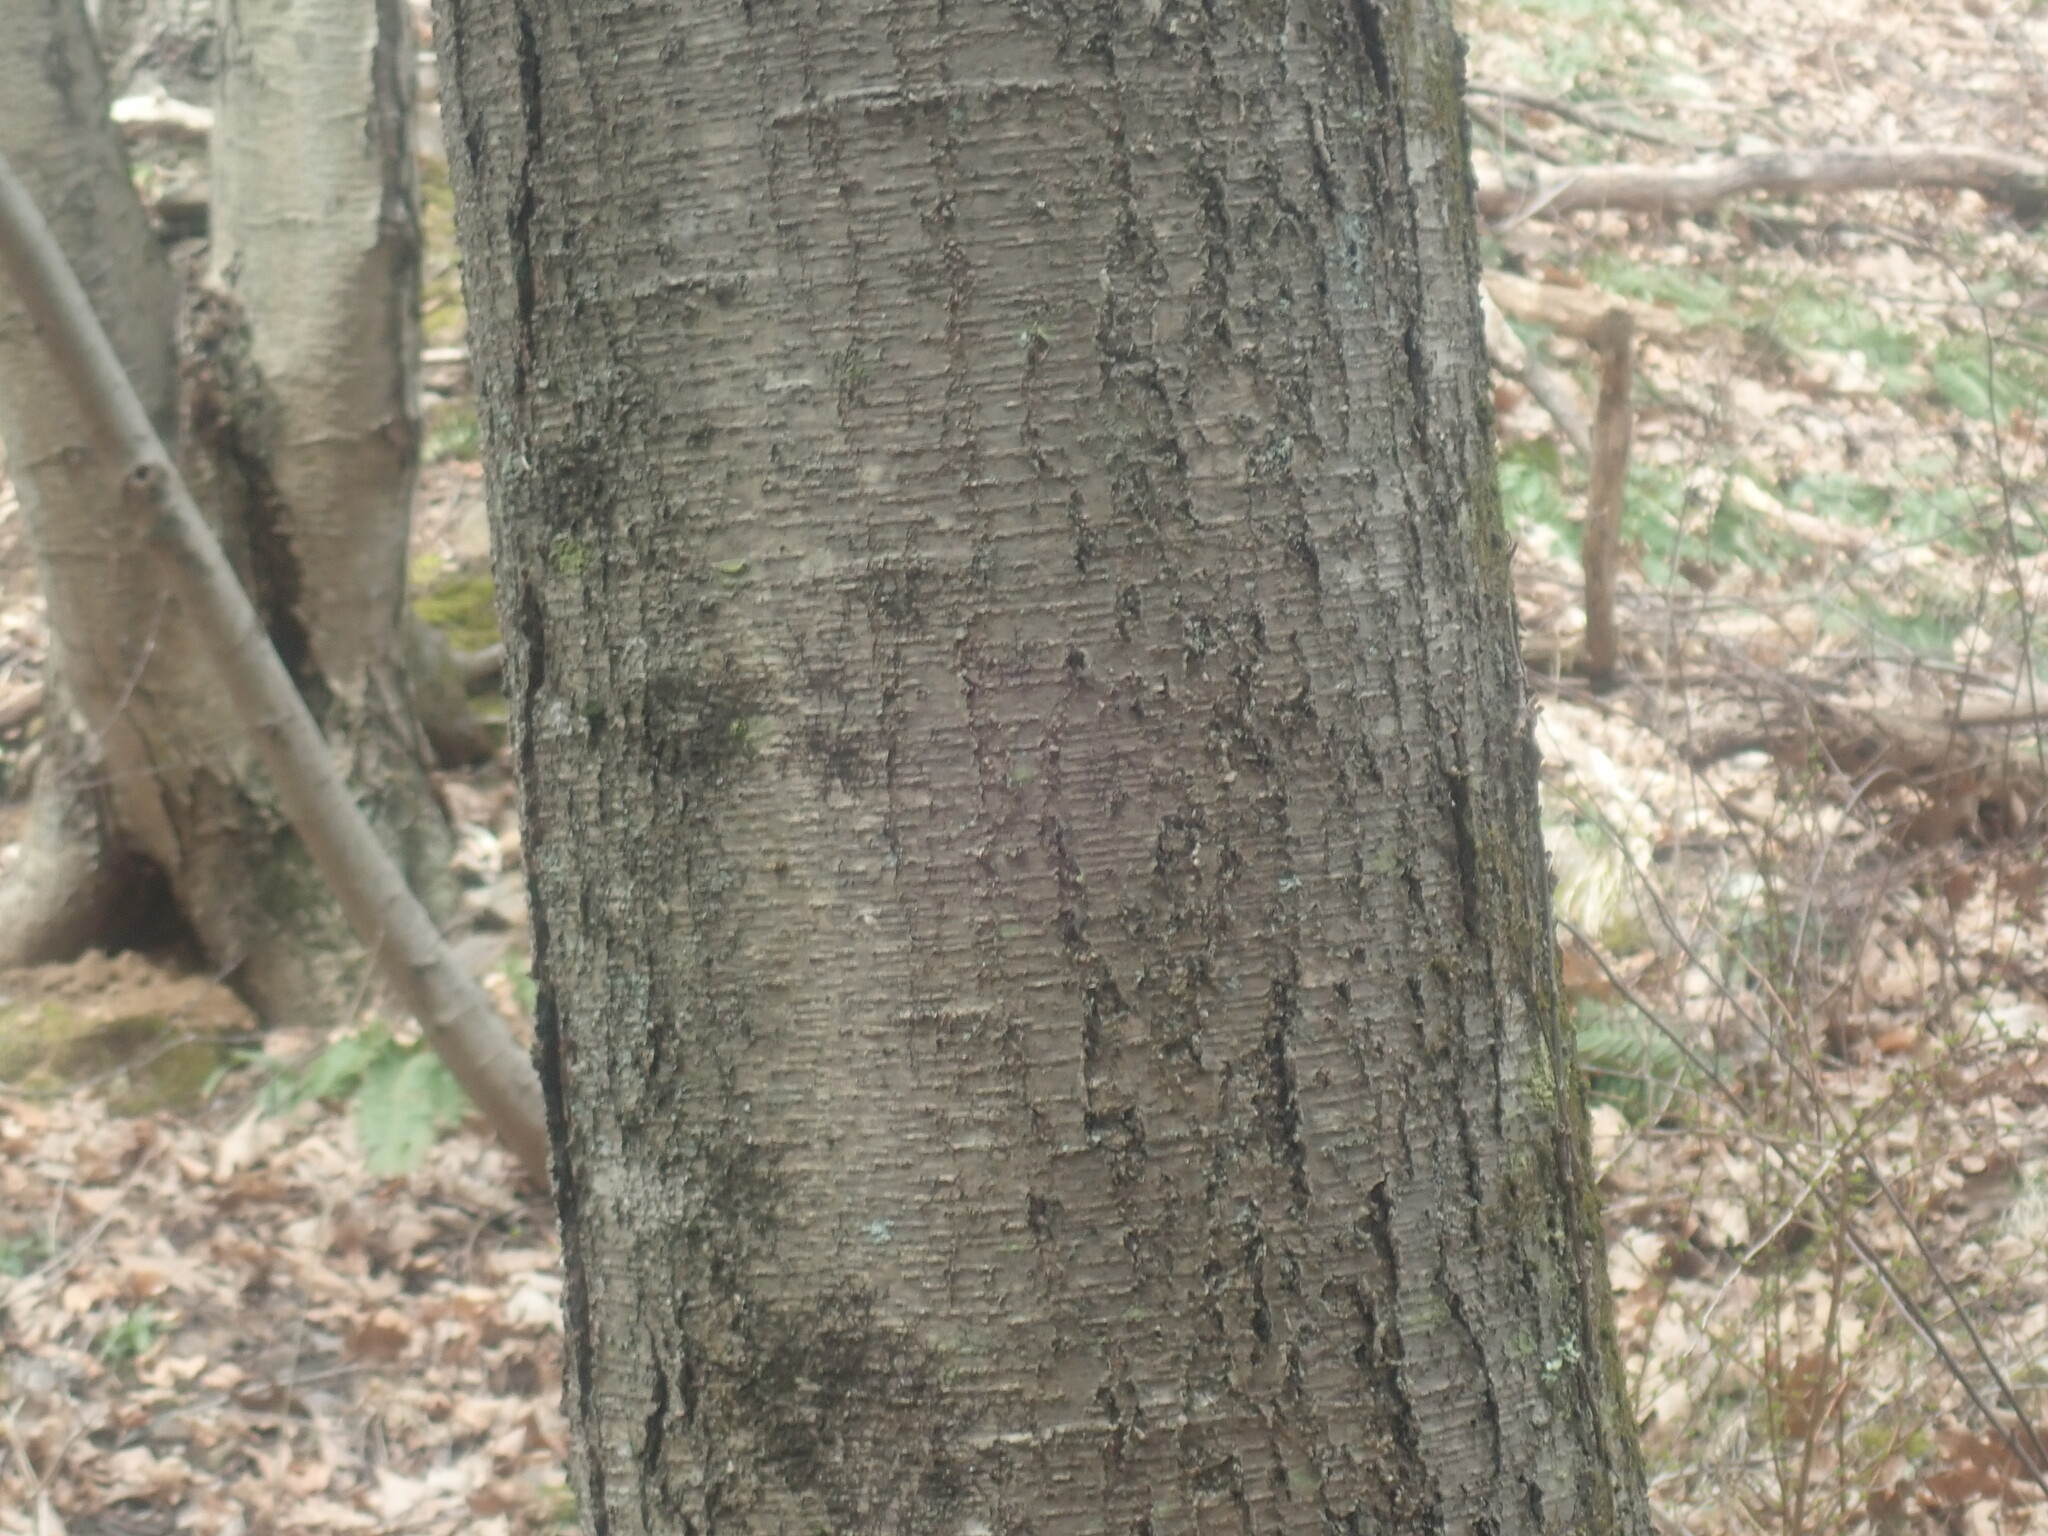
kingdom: Plantae
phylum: Tracheophyta
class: Magnoliopsida
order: Fagales
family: Betulaceae
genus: Betula
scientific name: Betula lenta
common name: Black birch
